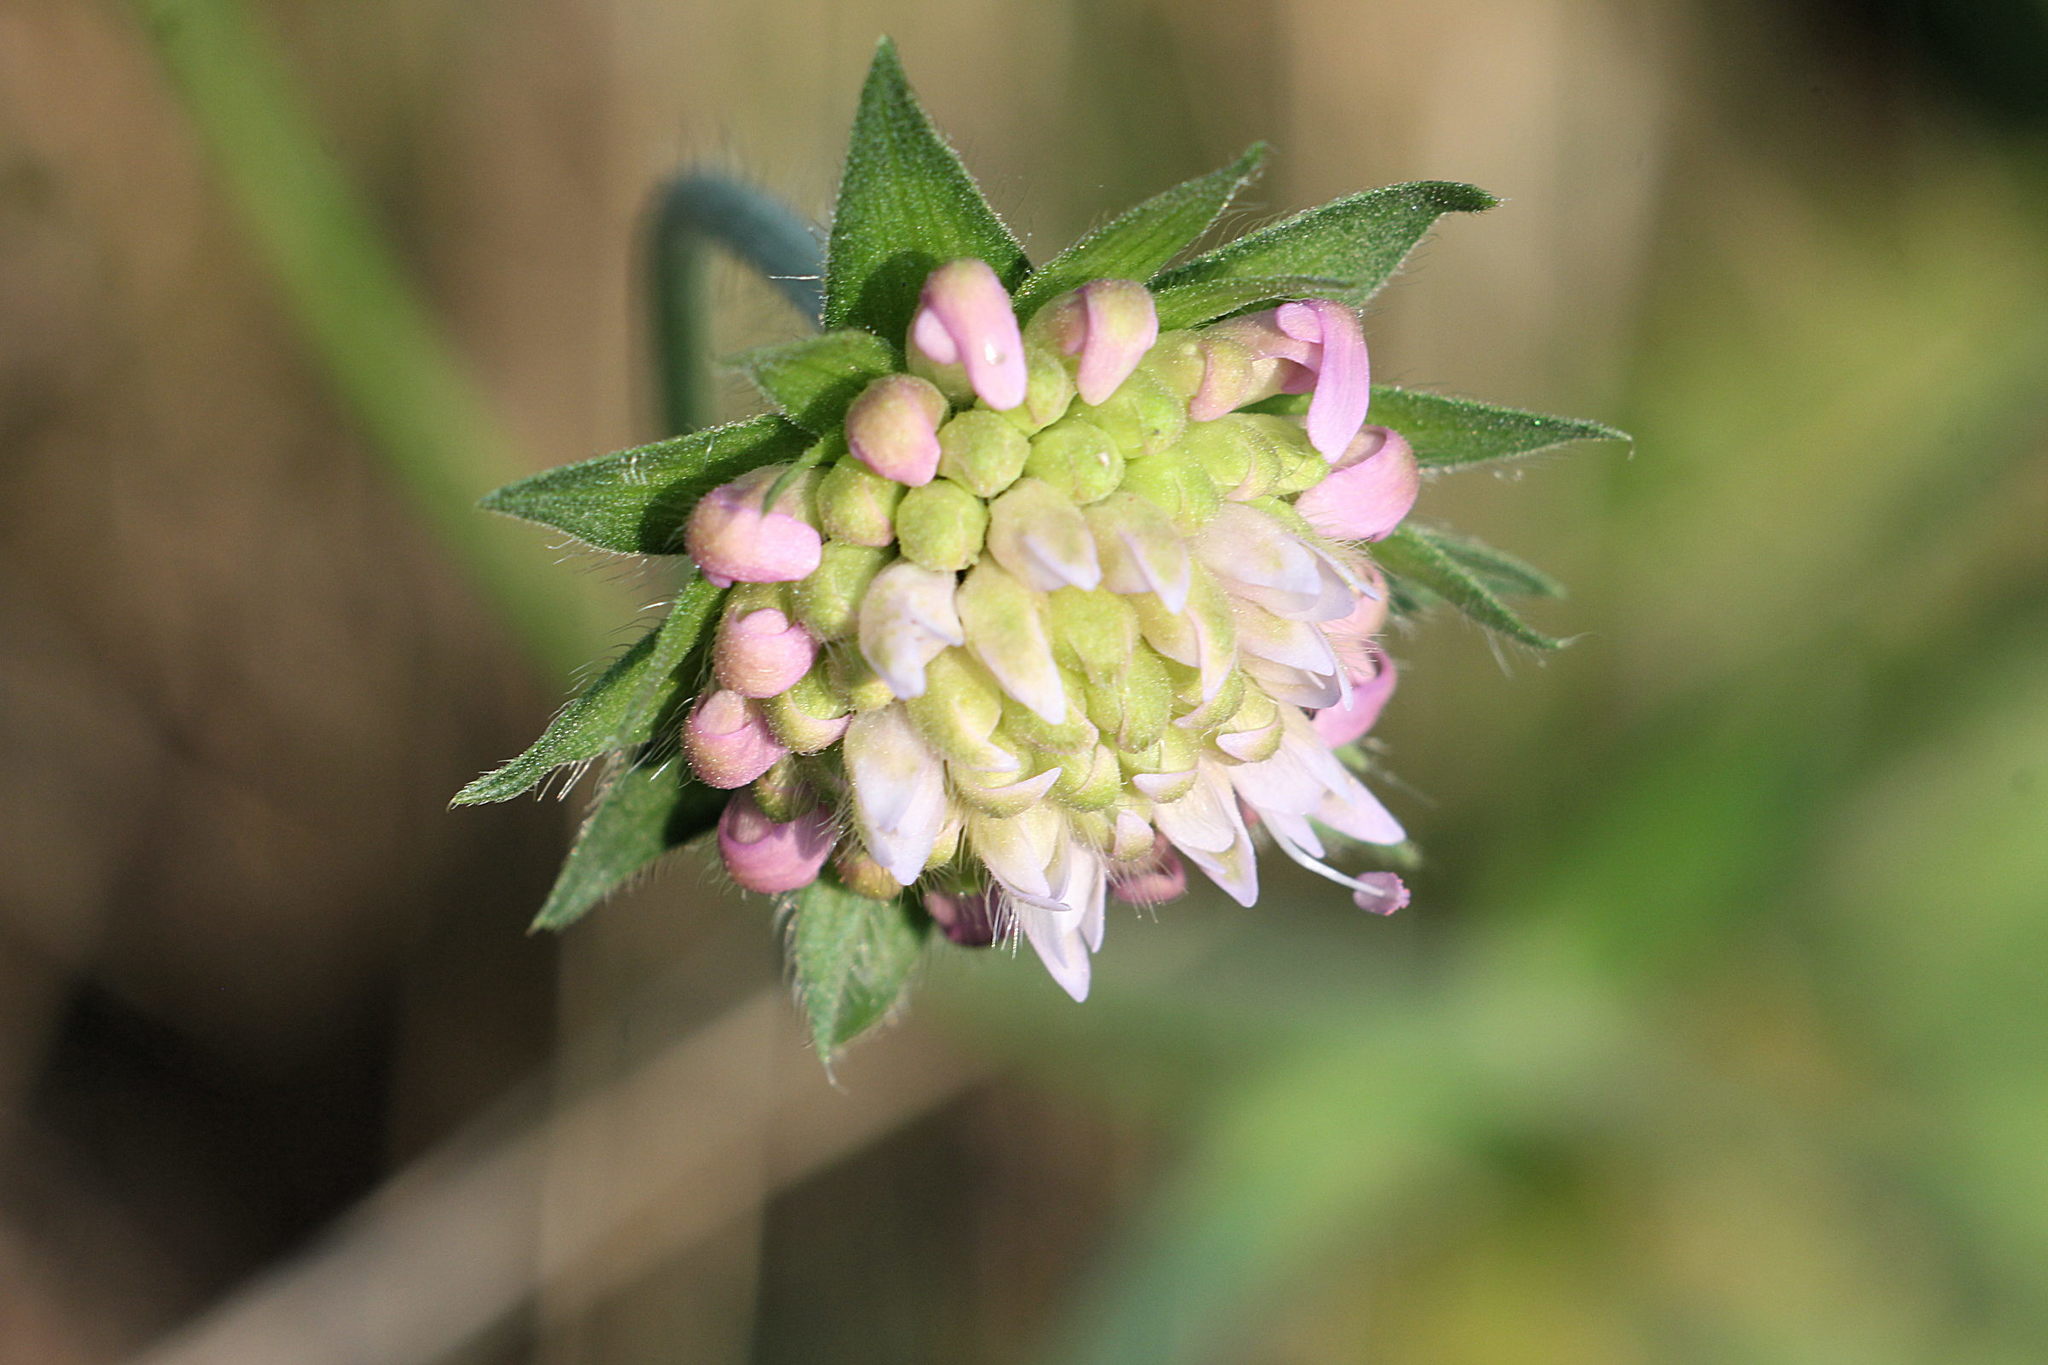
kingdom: Plantae
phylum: Tracheophyta
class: Magnoliopsida
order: Dipsacales
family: Caprifoliaceae
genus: Knautia
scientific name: Knautia arvensis
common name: Field scabiosa
